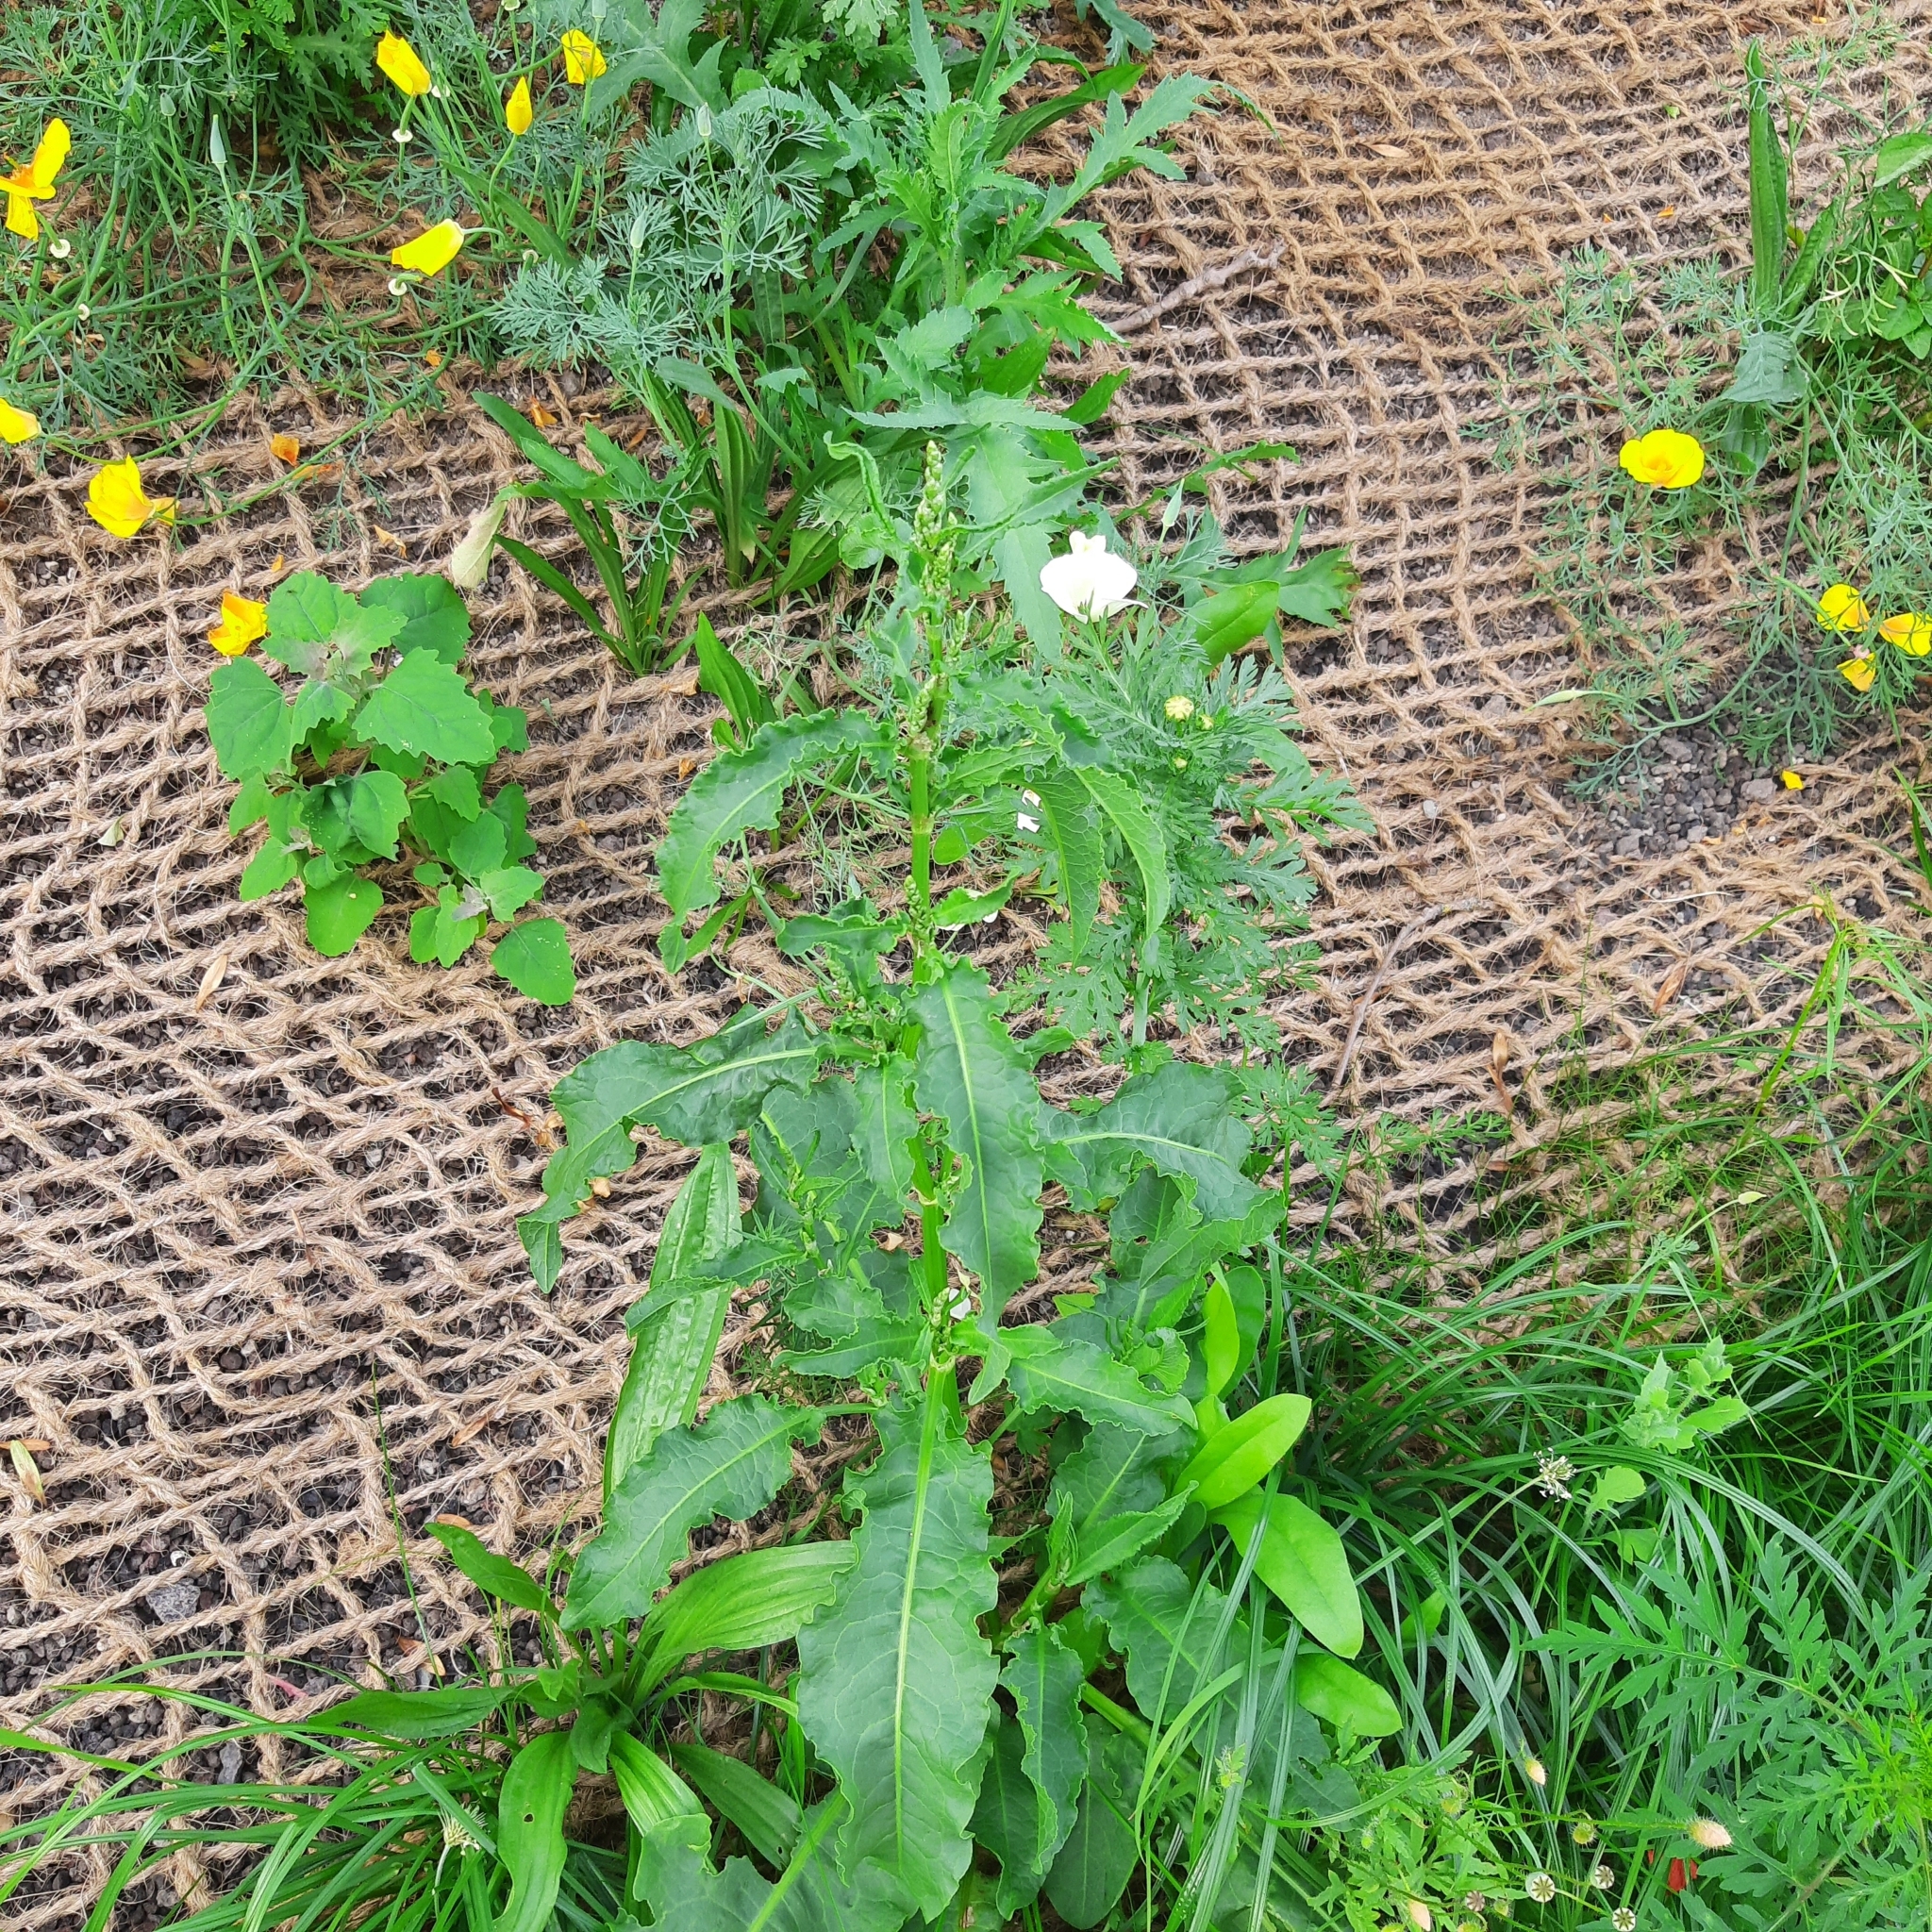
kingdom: Plantae
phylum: Tracheophyta
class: Magnoliopsida
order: Caryophyllales
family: Polygonaceae
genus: Rumex
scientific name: Rumex crispus
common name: Curled dock
